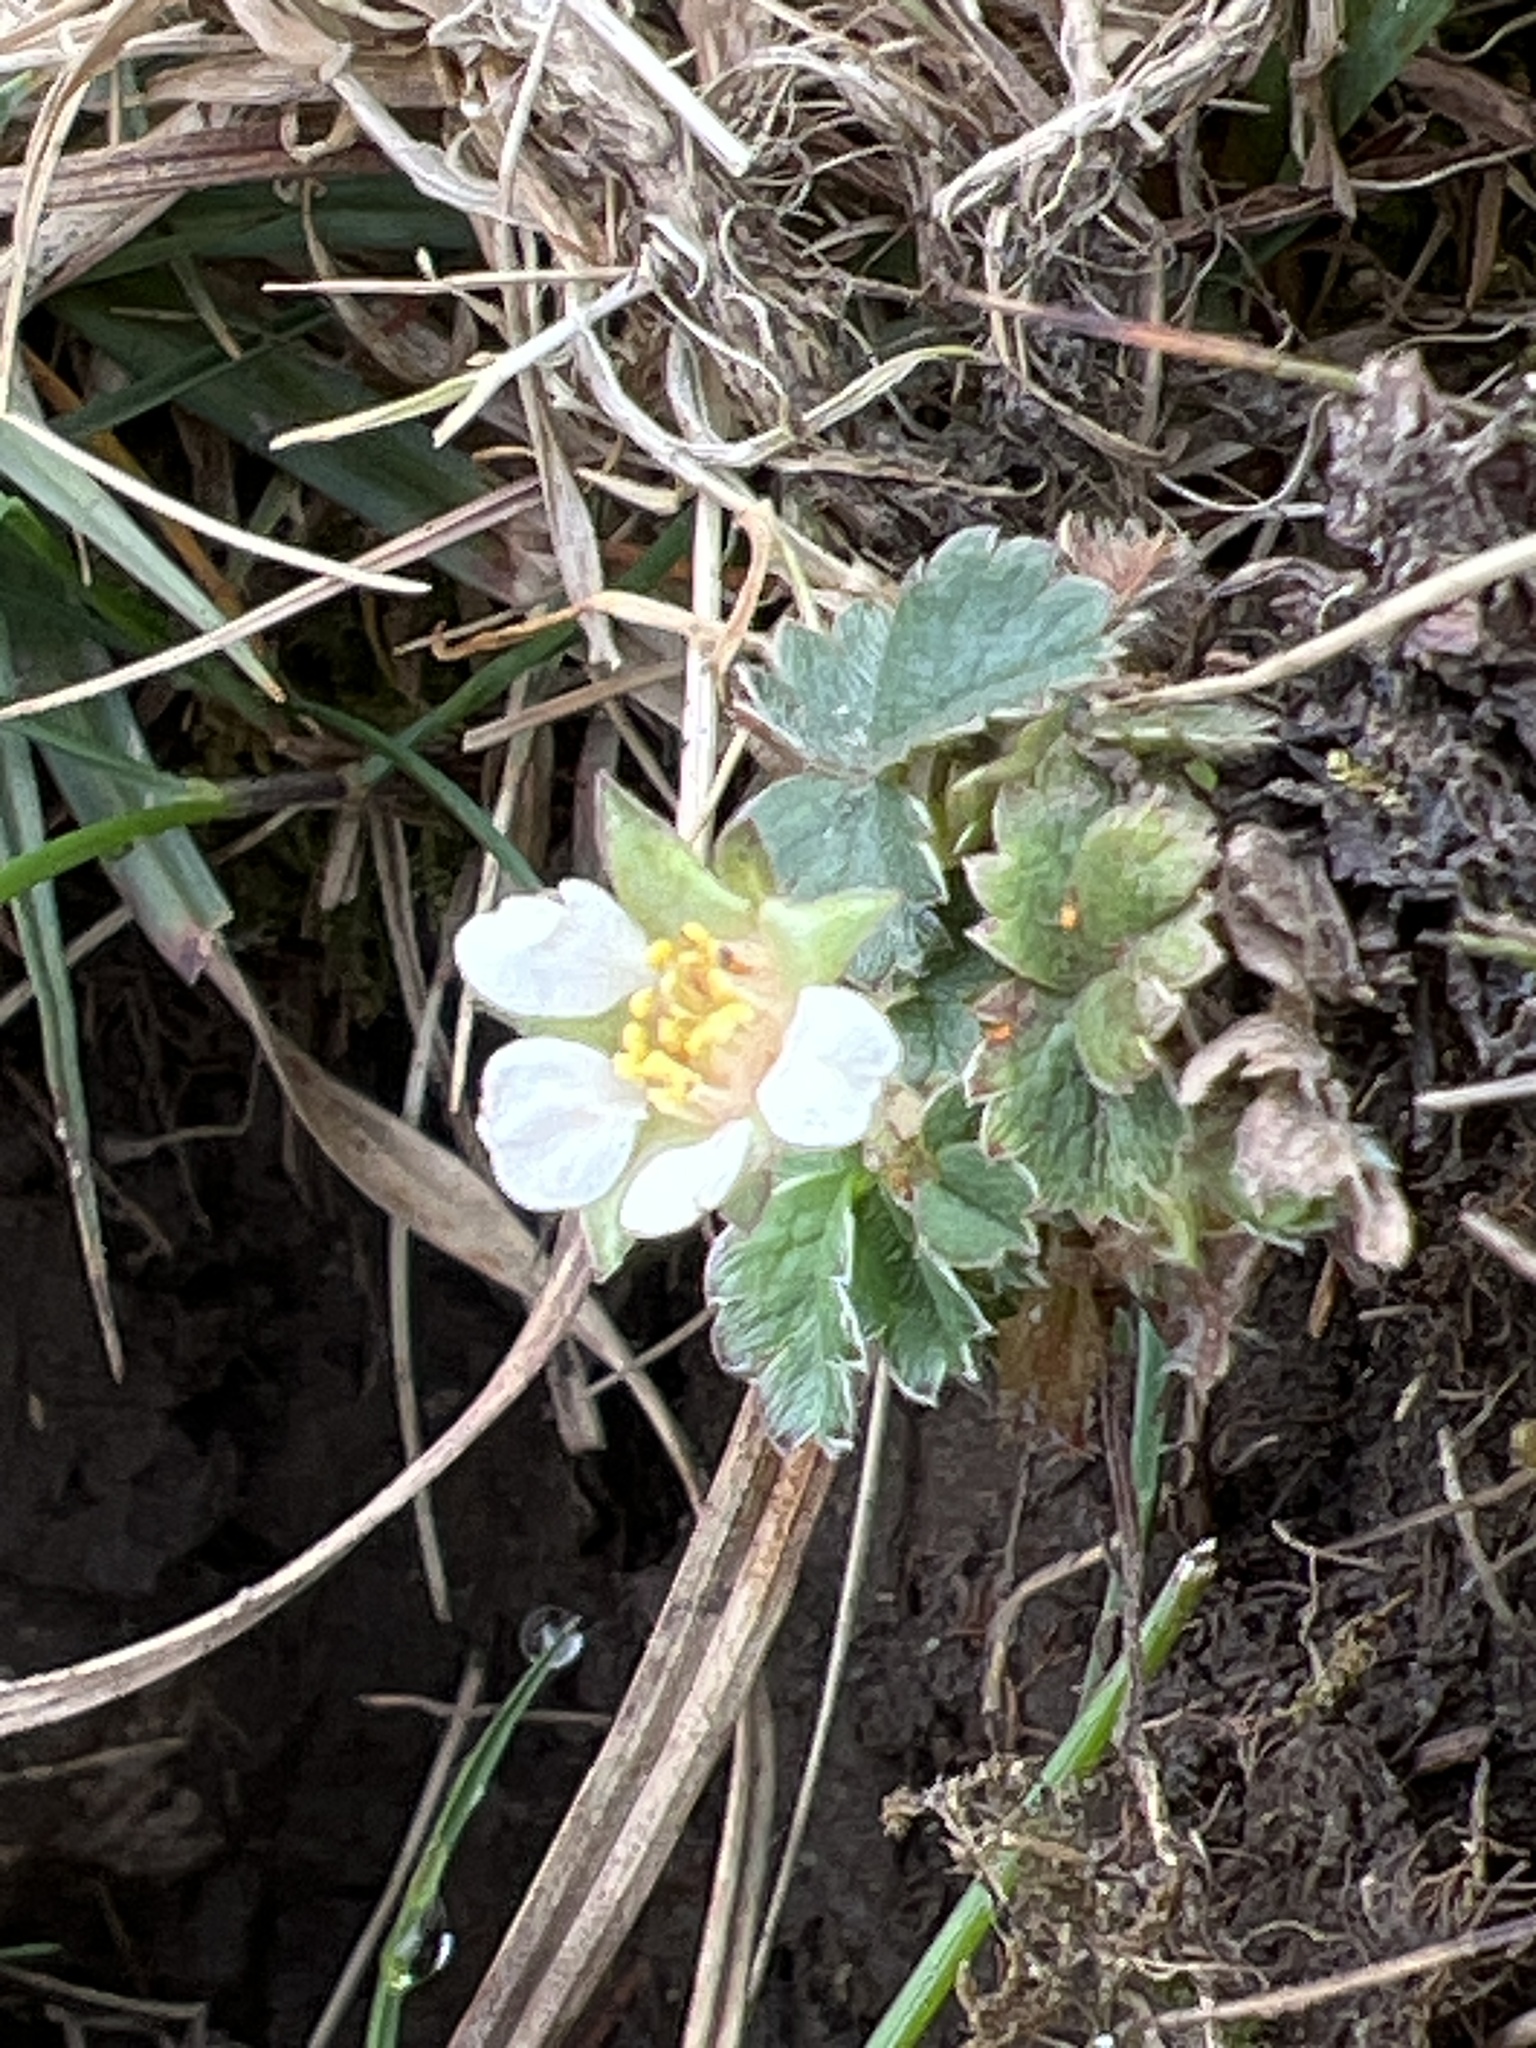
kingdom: Plantae
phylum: Tracheophyta
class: Magnoliopsida
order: Rosales
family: Rosaceae
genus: Potentilla
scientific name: Potentilla sterilis
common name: Barren strawberry
